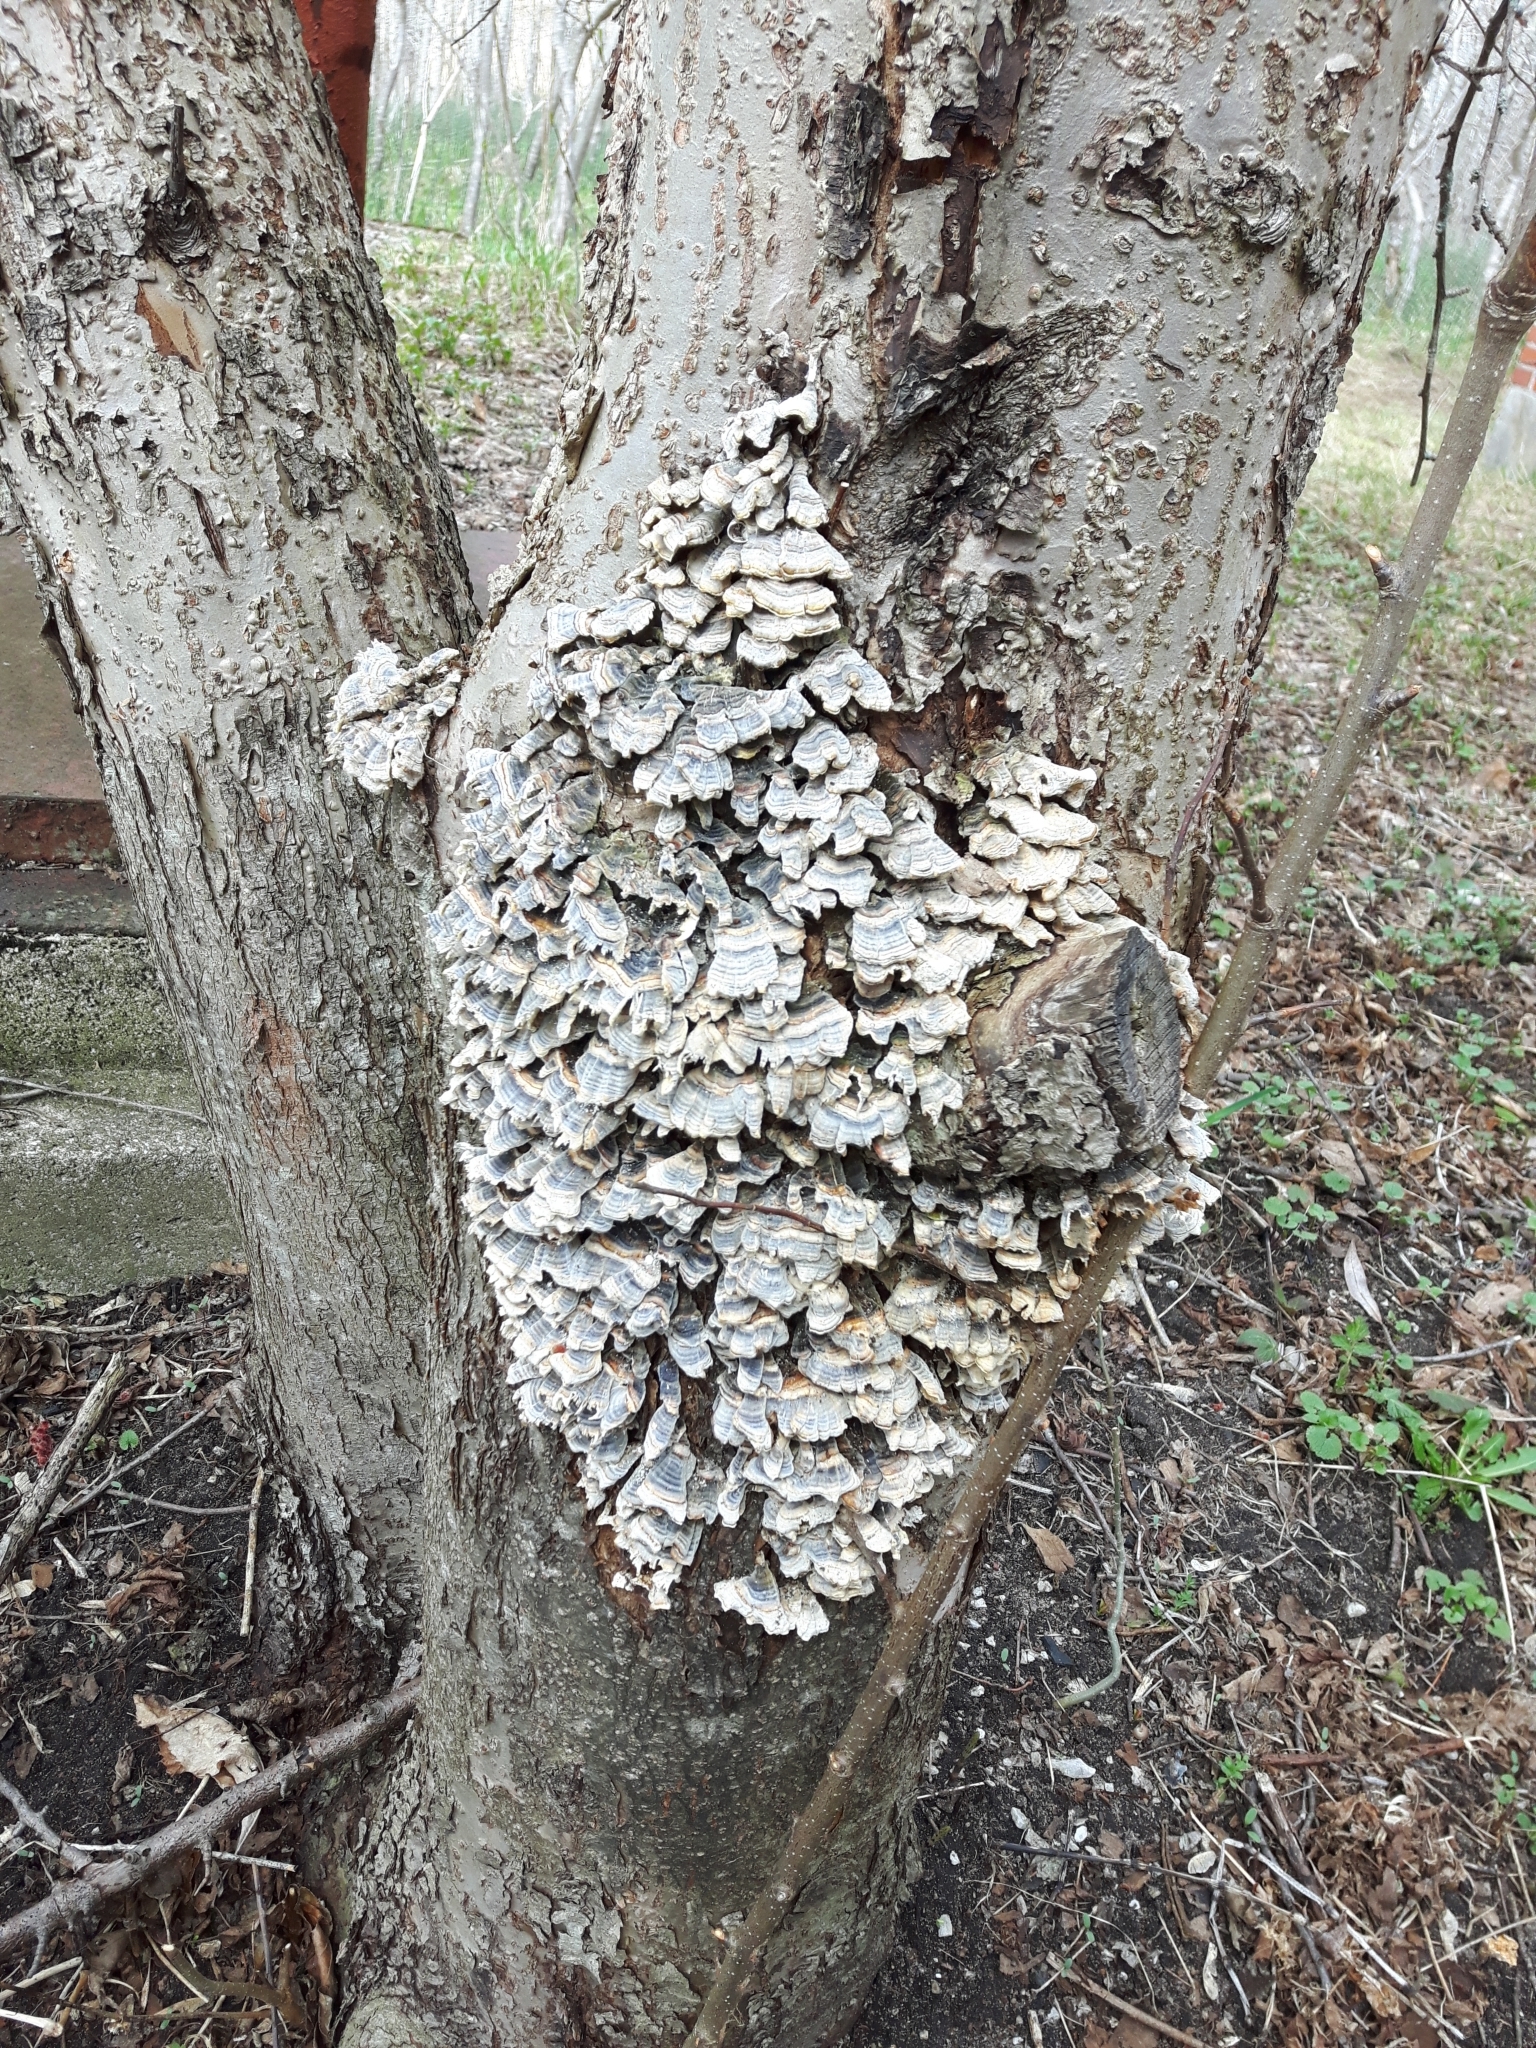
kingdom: Fungi
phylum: Basidiomycota
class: Agaricomycetes
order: Polyporales
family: Polyporaceae
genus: Trametes
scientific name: Trametes versicolor
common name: Turkeytail
